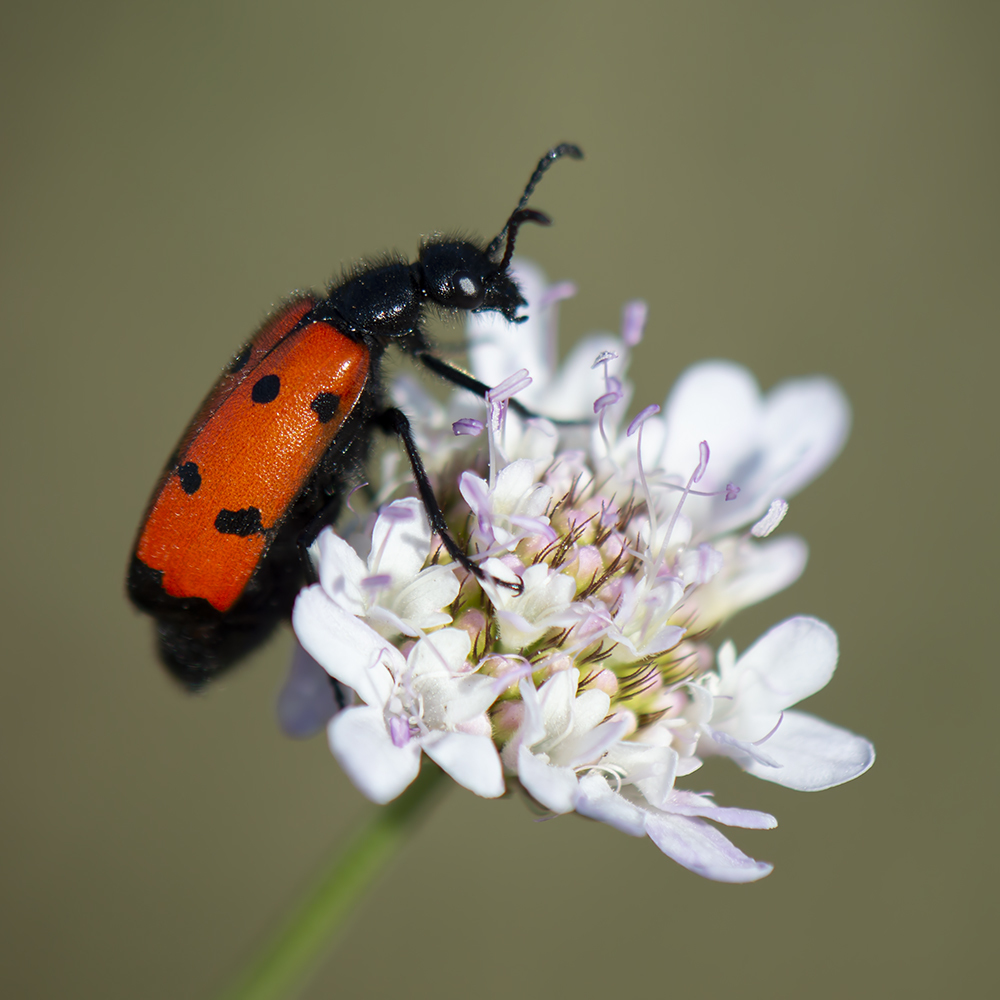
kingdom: Animalia
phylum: Arthropoda
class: Insecta
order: Coleoptera
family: Meloidae
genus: Mylabris
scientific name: Mylabris quadripunctata
